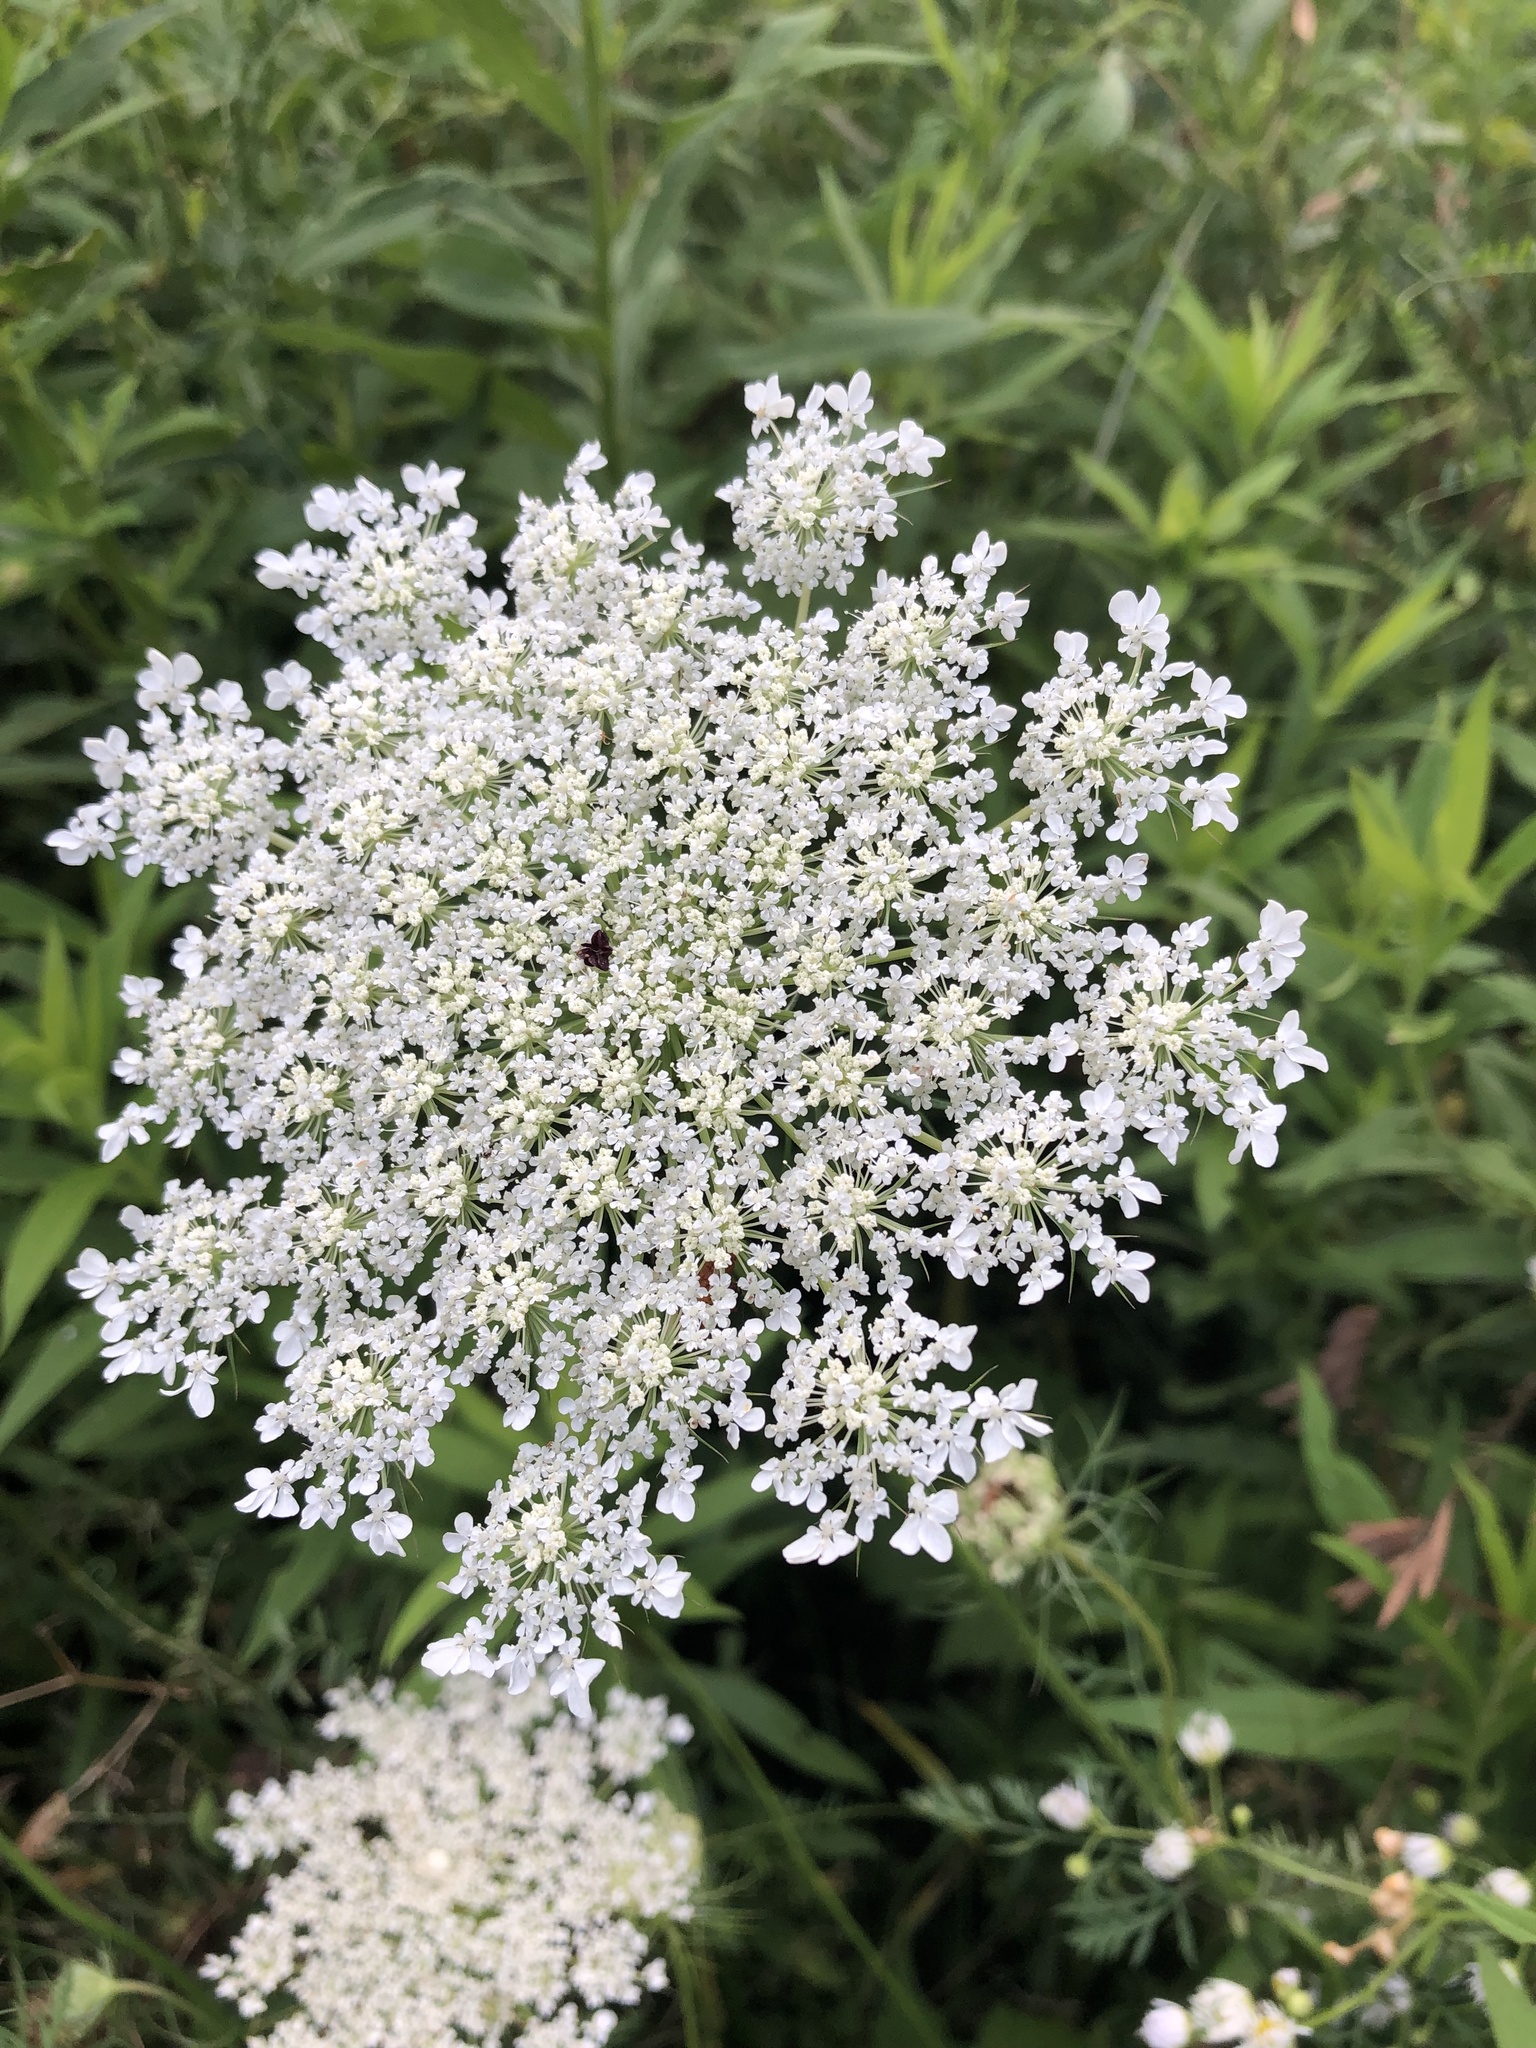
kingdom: Plantae
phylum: Tracheophyta
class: Magnoliopsida
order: Apiales
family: Apiaceae
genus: Daucus
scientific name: Daucus carota
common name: Wild carrot
